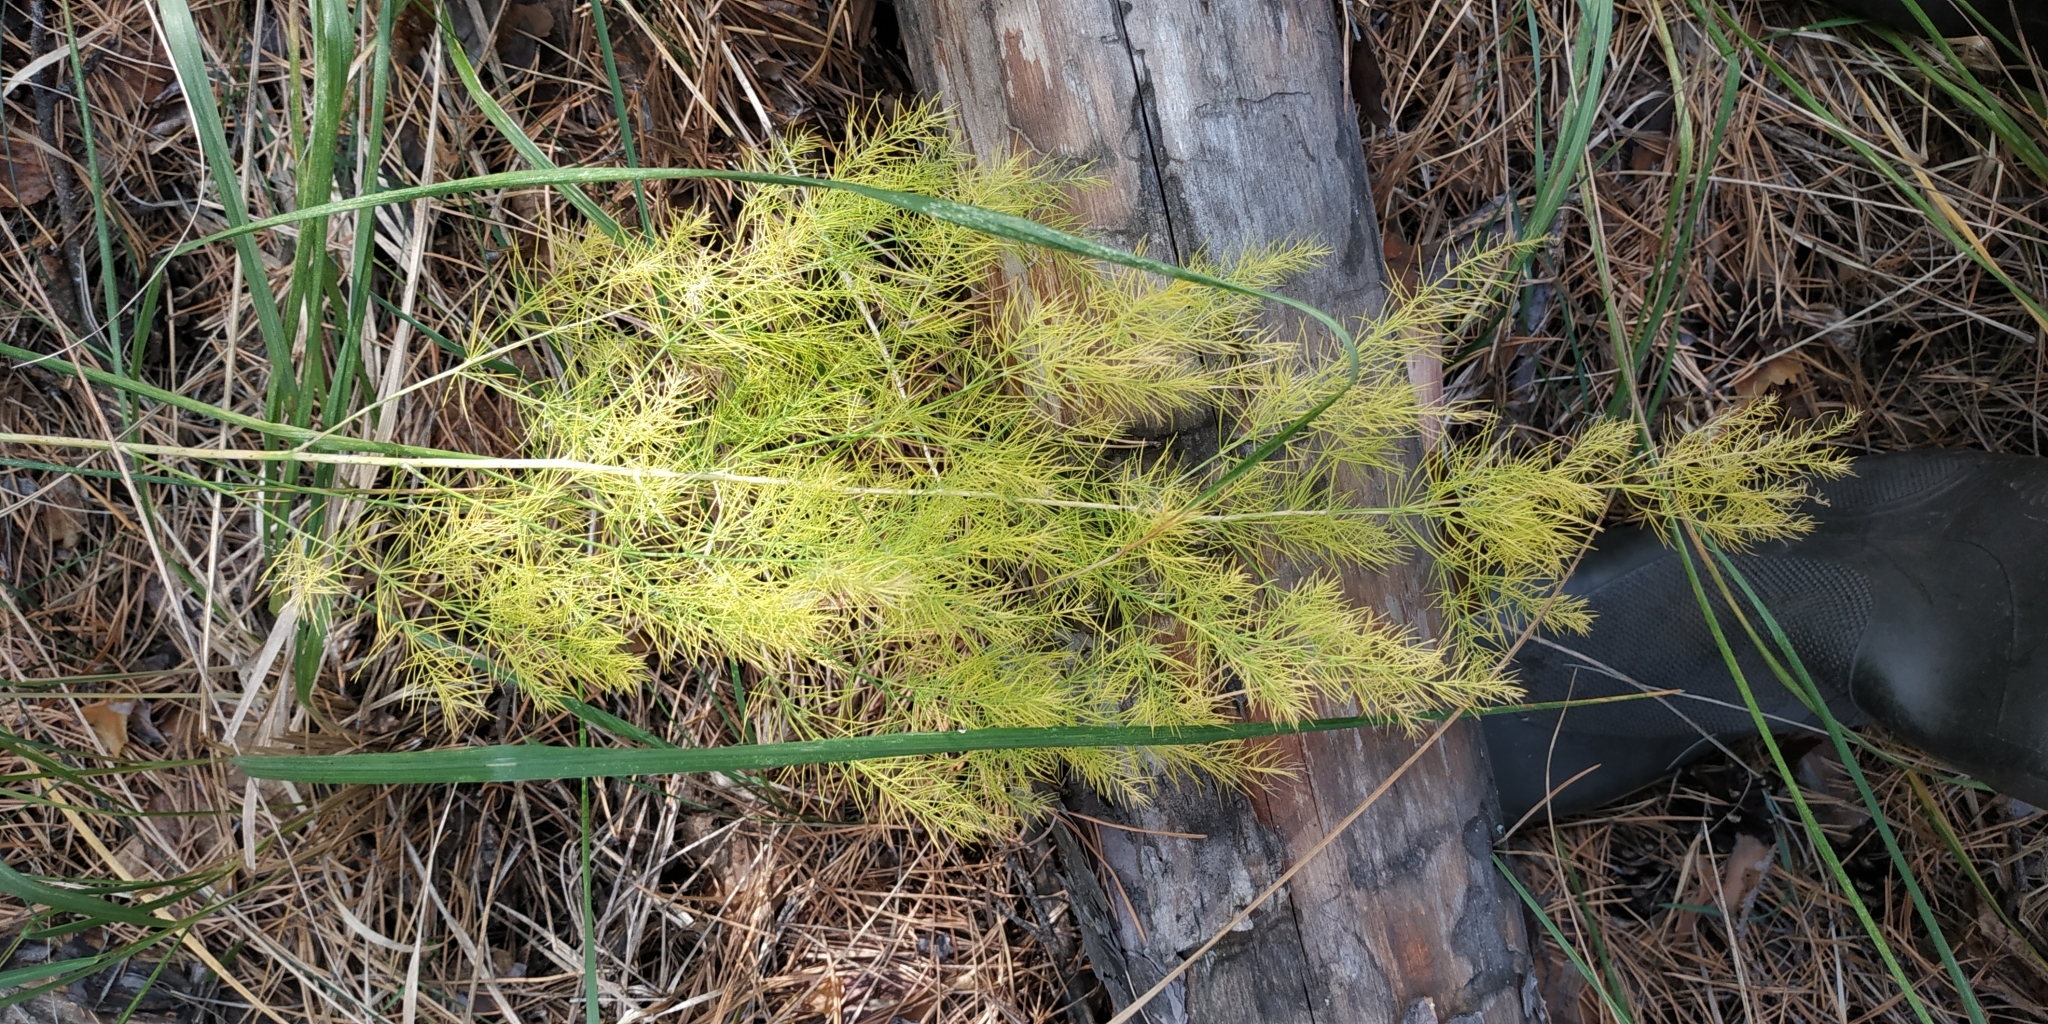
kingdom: Plantae
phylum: Tracheophyta
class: Liliopsida
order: Asparagales
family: Asparagaceae
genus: Asparagus
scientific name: Asparagus officinalis
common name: Garden asparagus
